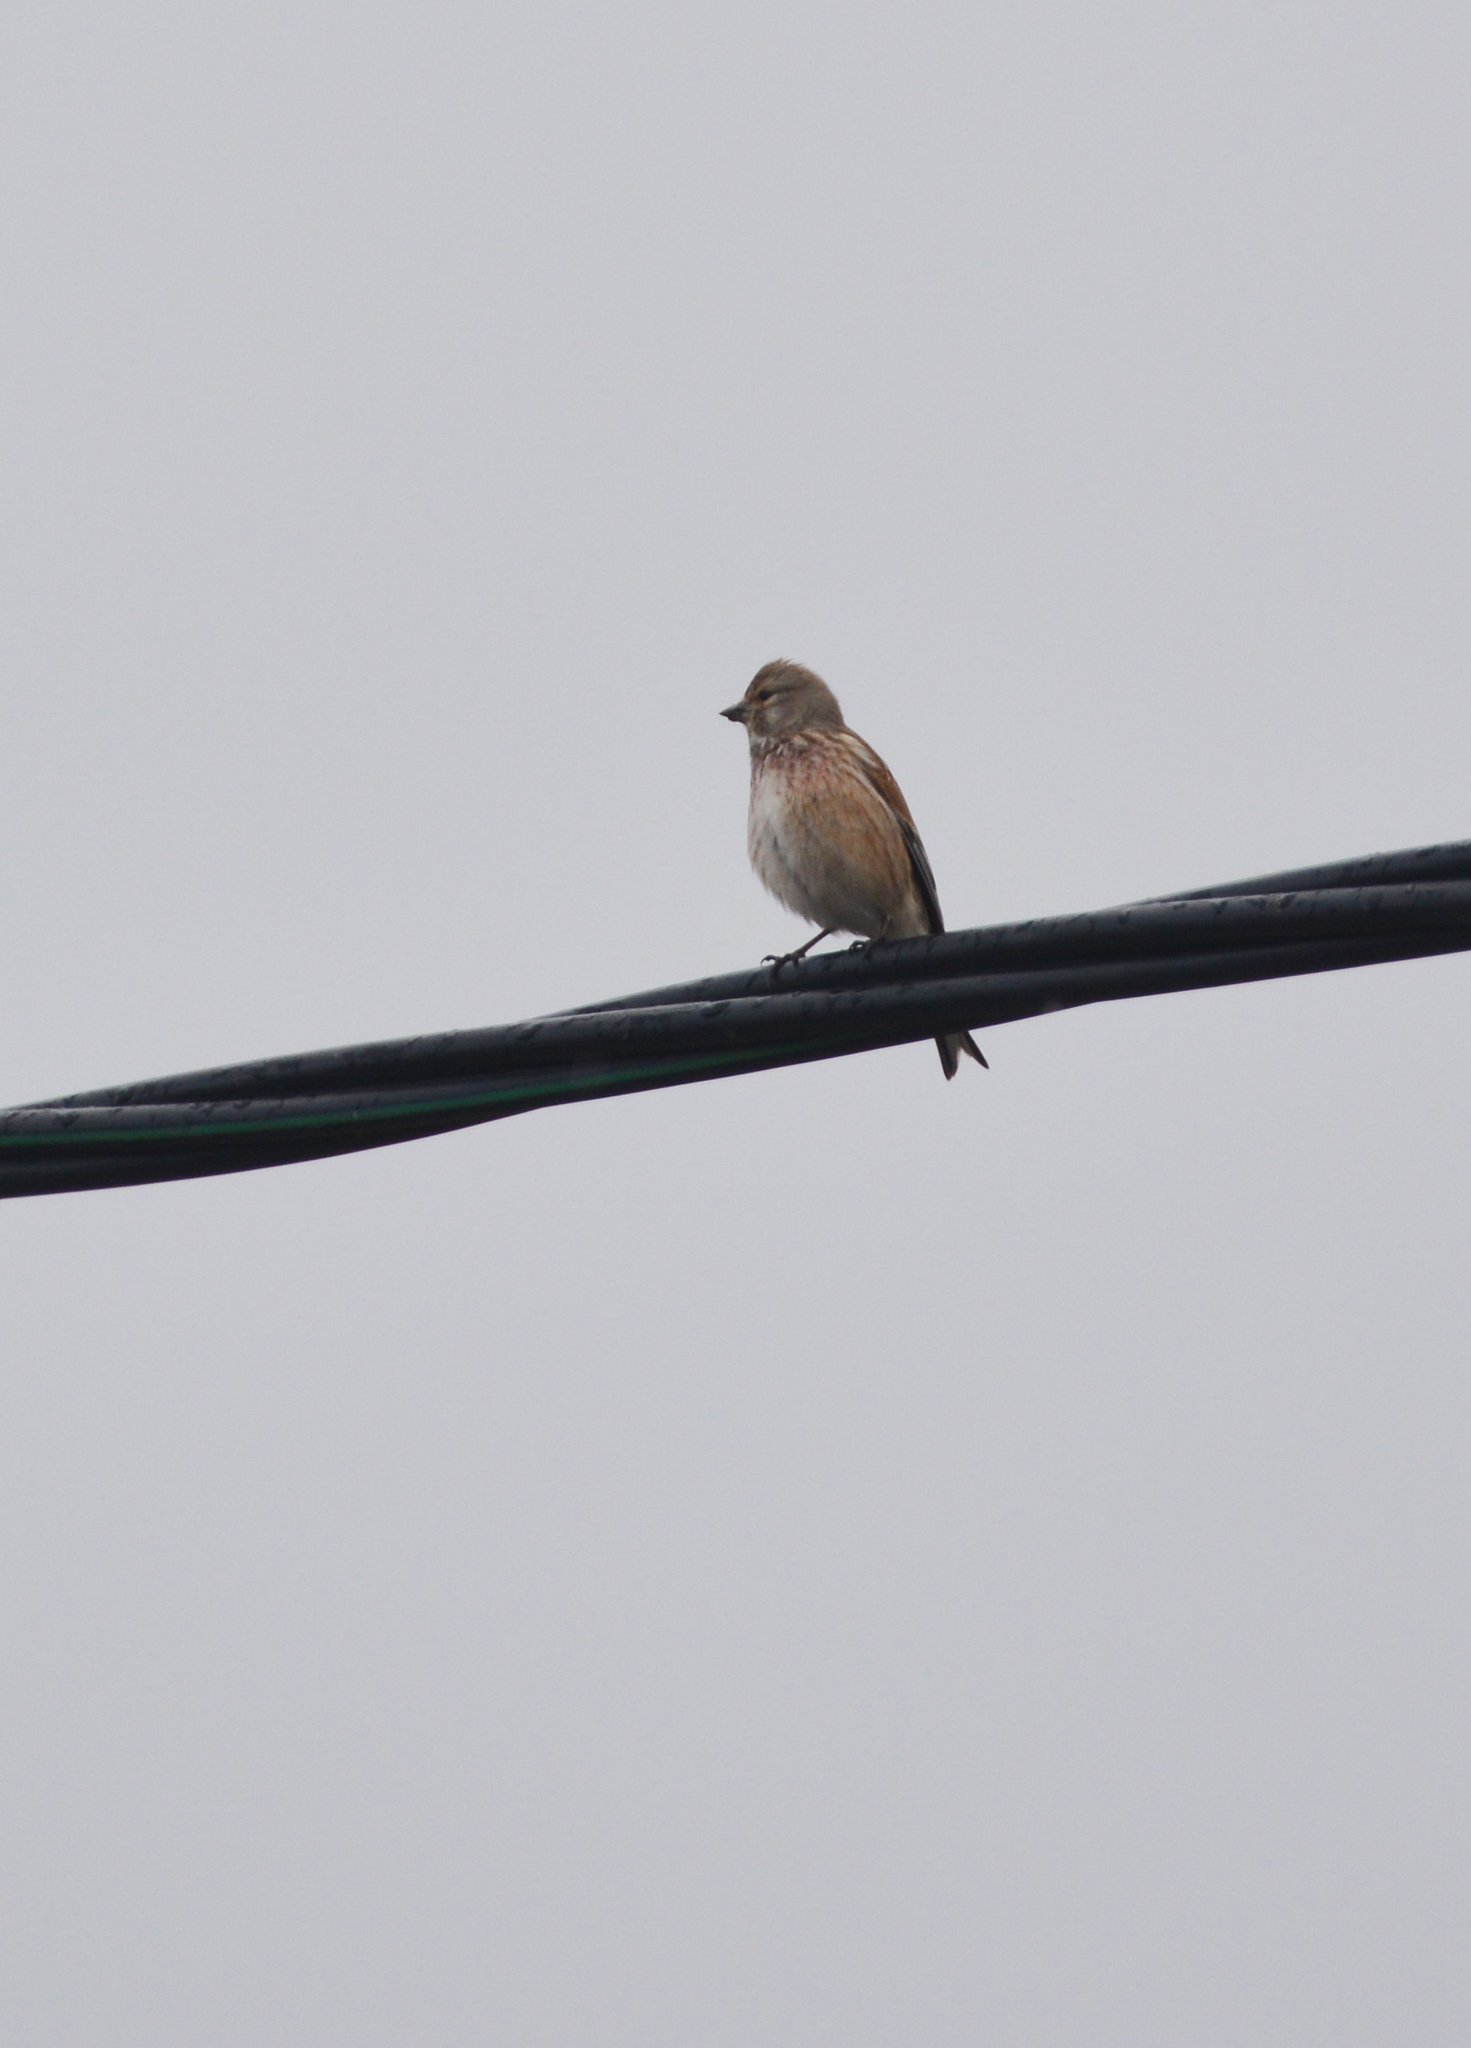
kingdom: Animalia
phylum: Chordata
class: Aves
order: Passeriformes
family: Fringillidae
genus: Linaria
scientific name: Linaria cannabina
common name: Common linnet
